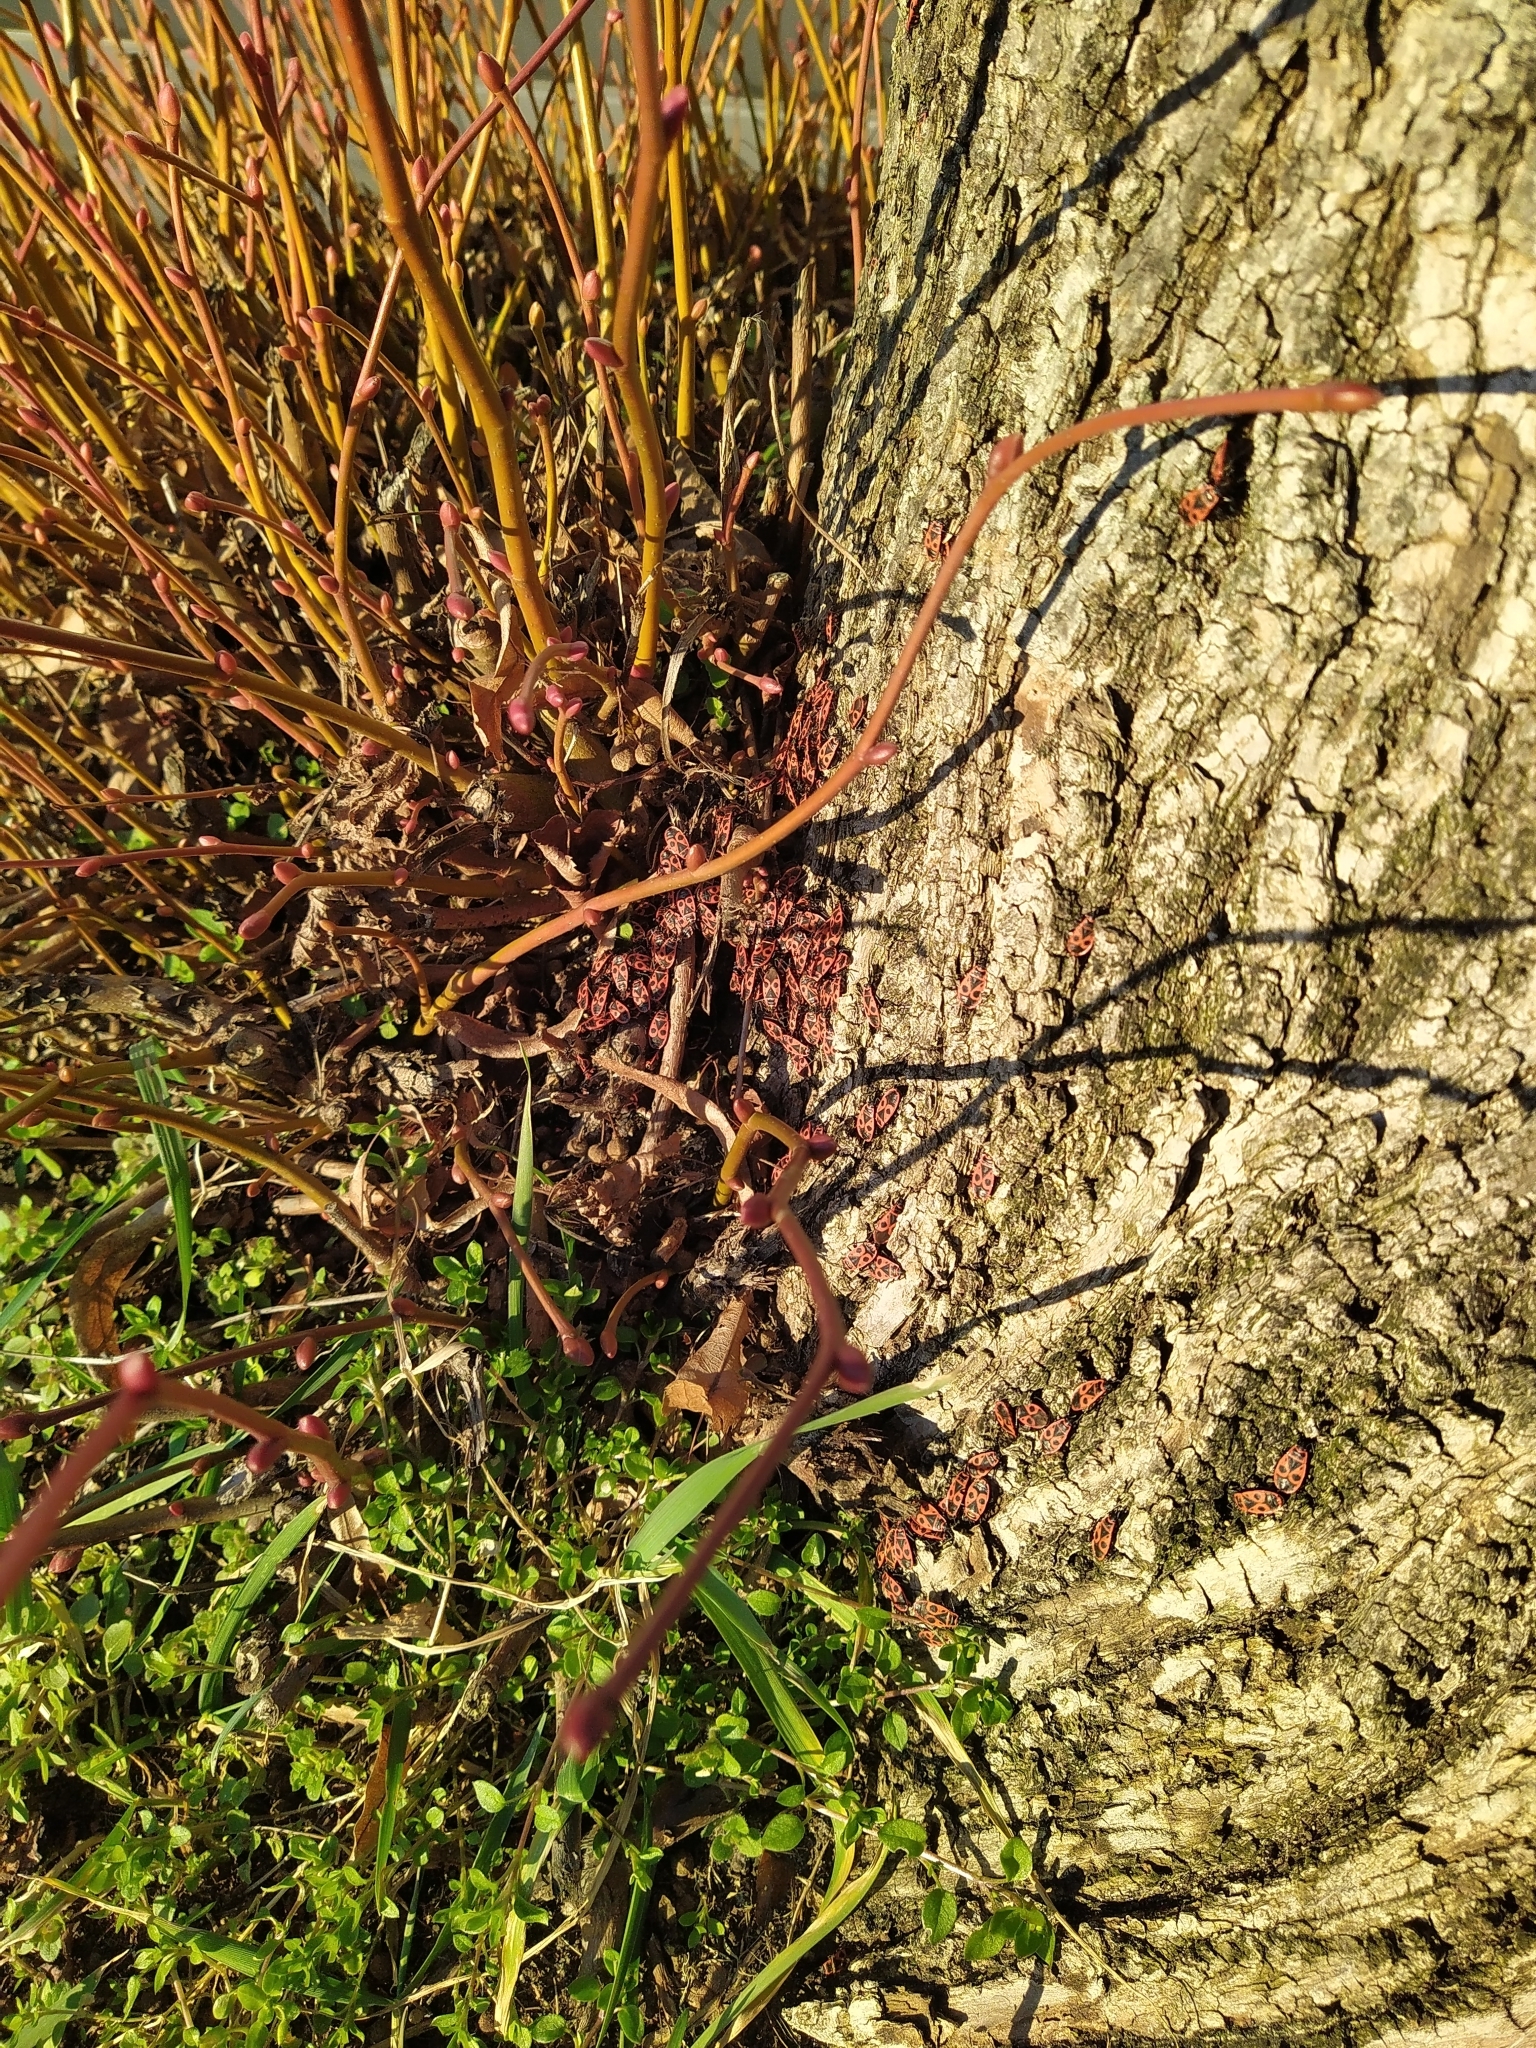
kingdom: Animalia
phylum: Arthropoda
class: Insecta
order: Hemiptera
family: Pyrrhocoridae
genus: Pyrrhocoris
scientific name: Pyrrhocoris apterus
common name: Firebug
